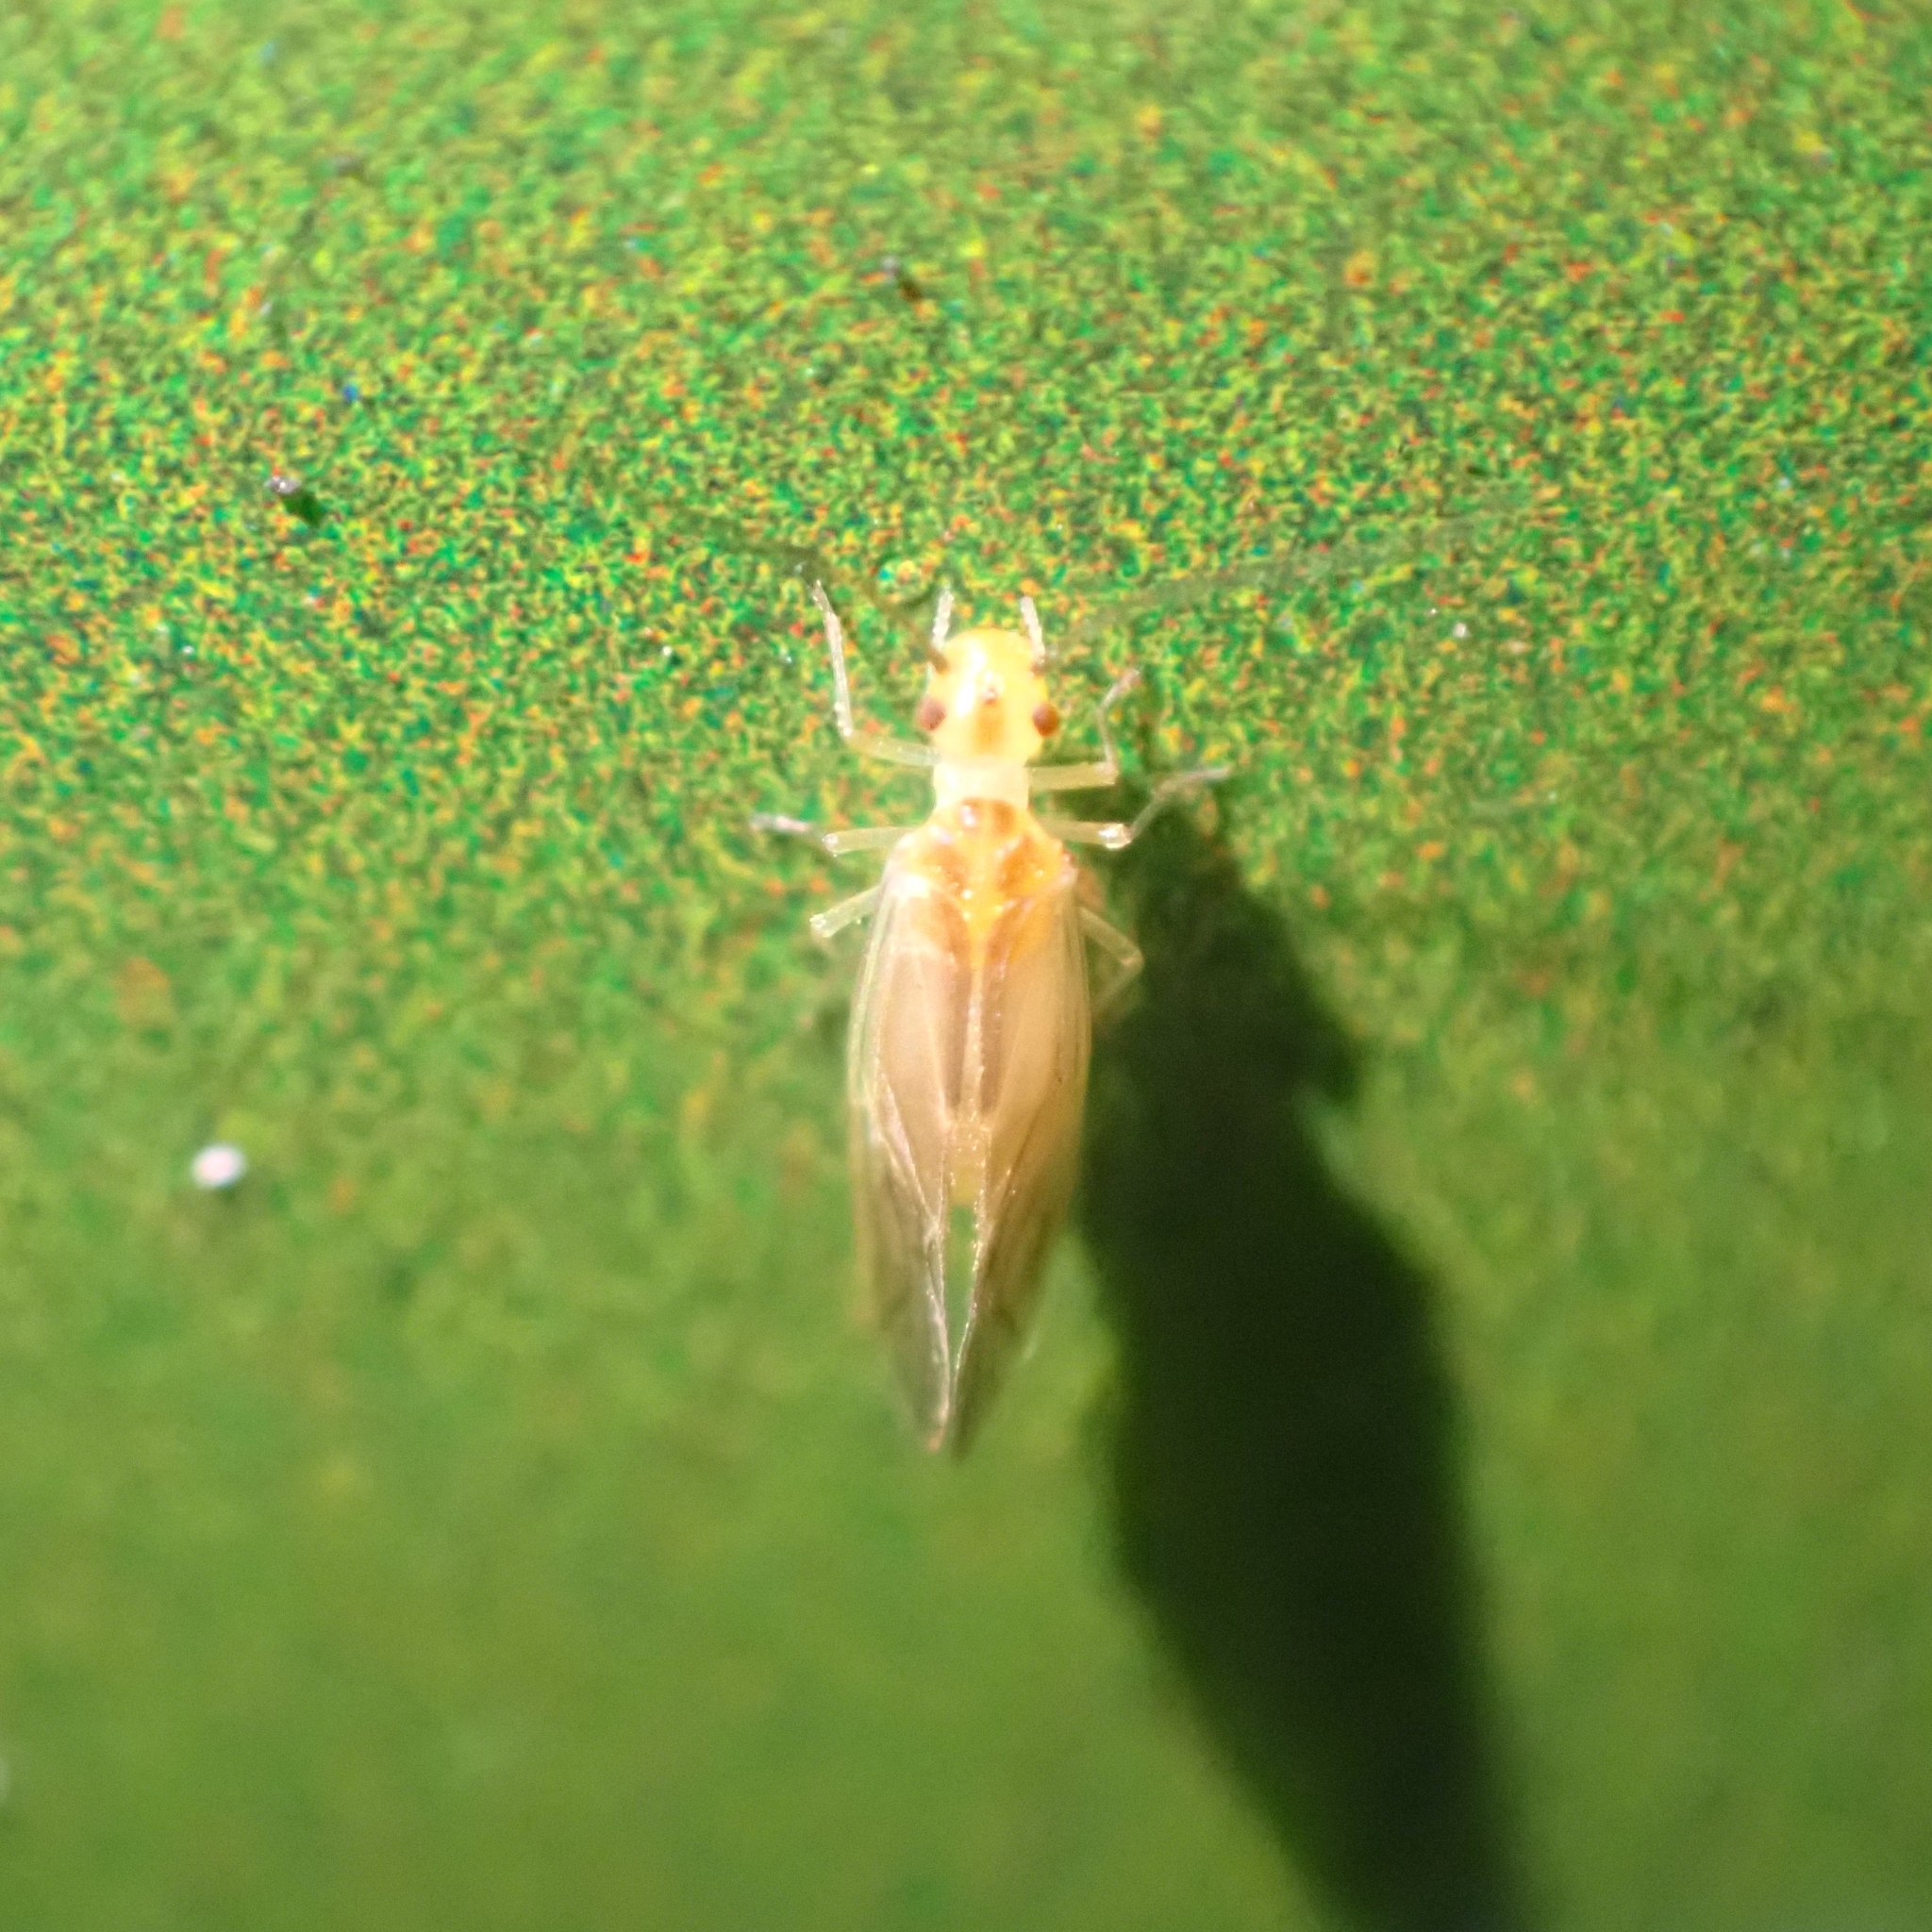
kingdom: Animalia
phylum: Arthropoda
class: Insecta
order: Psocodea
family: Caeciliusidae
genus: Valenzuela
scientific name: Valenzuela flavidus
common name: Yellow barklouse
